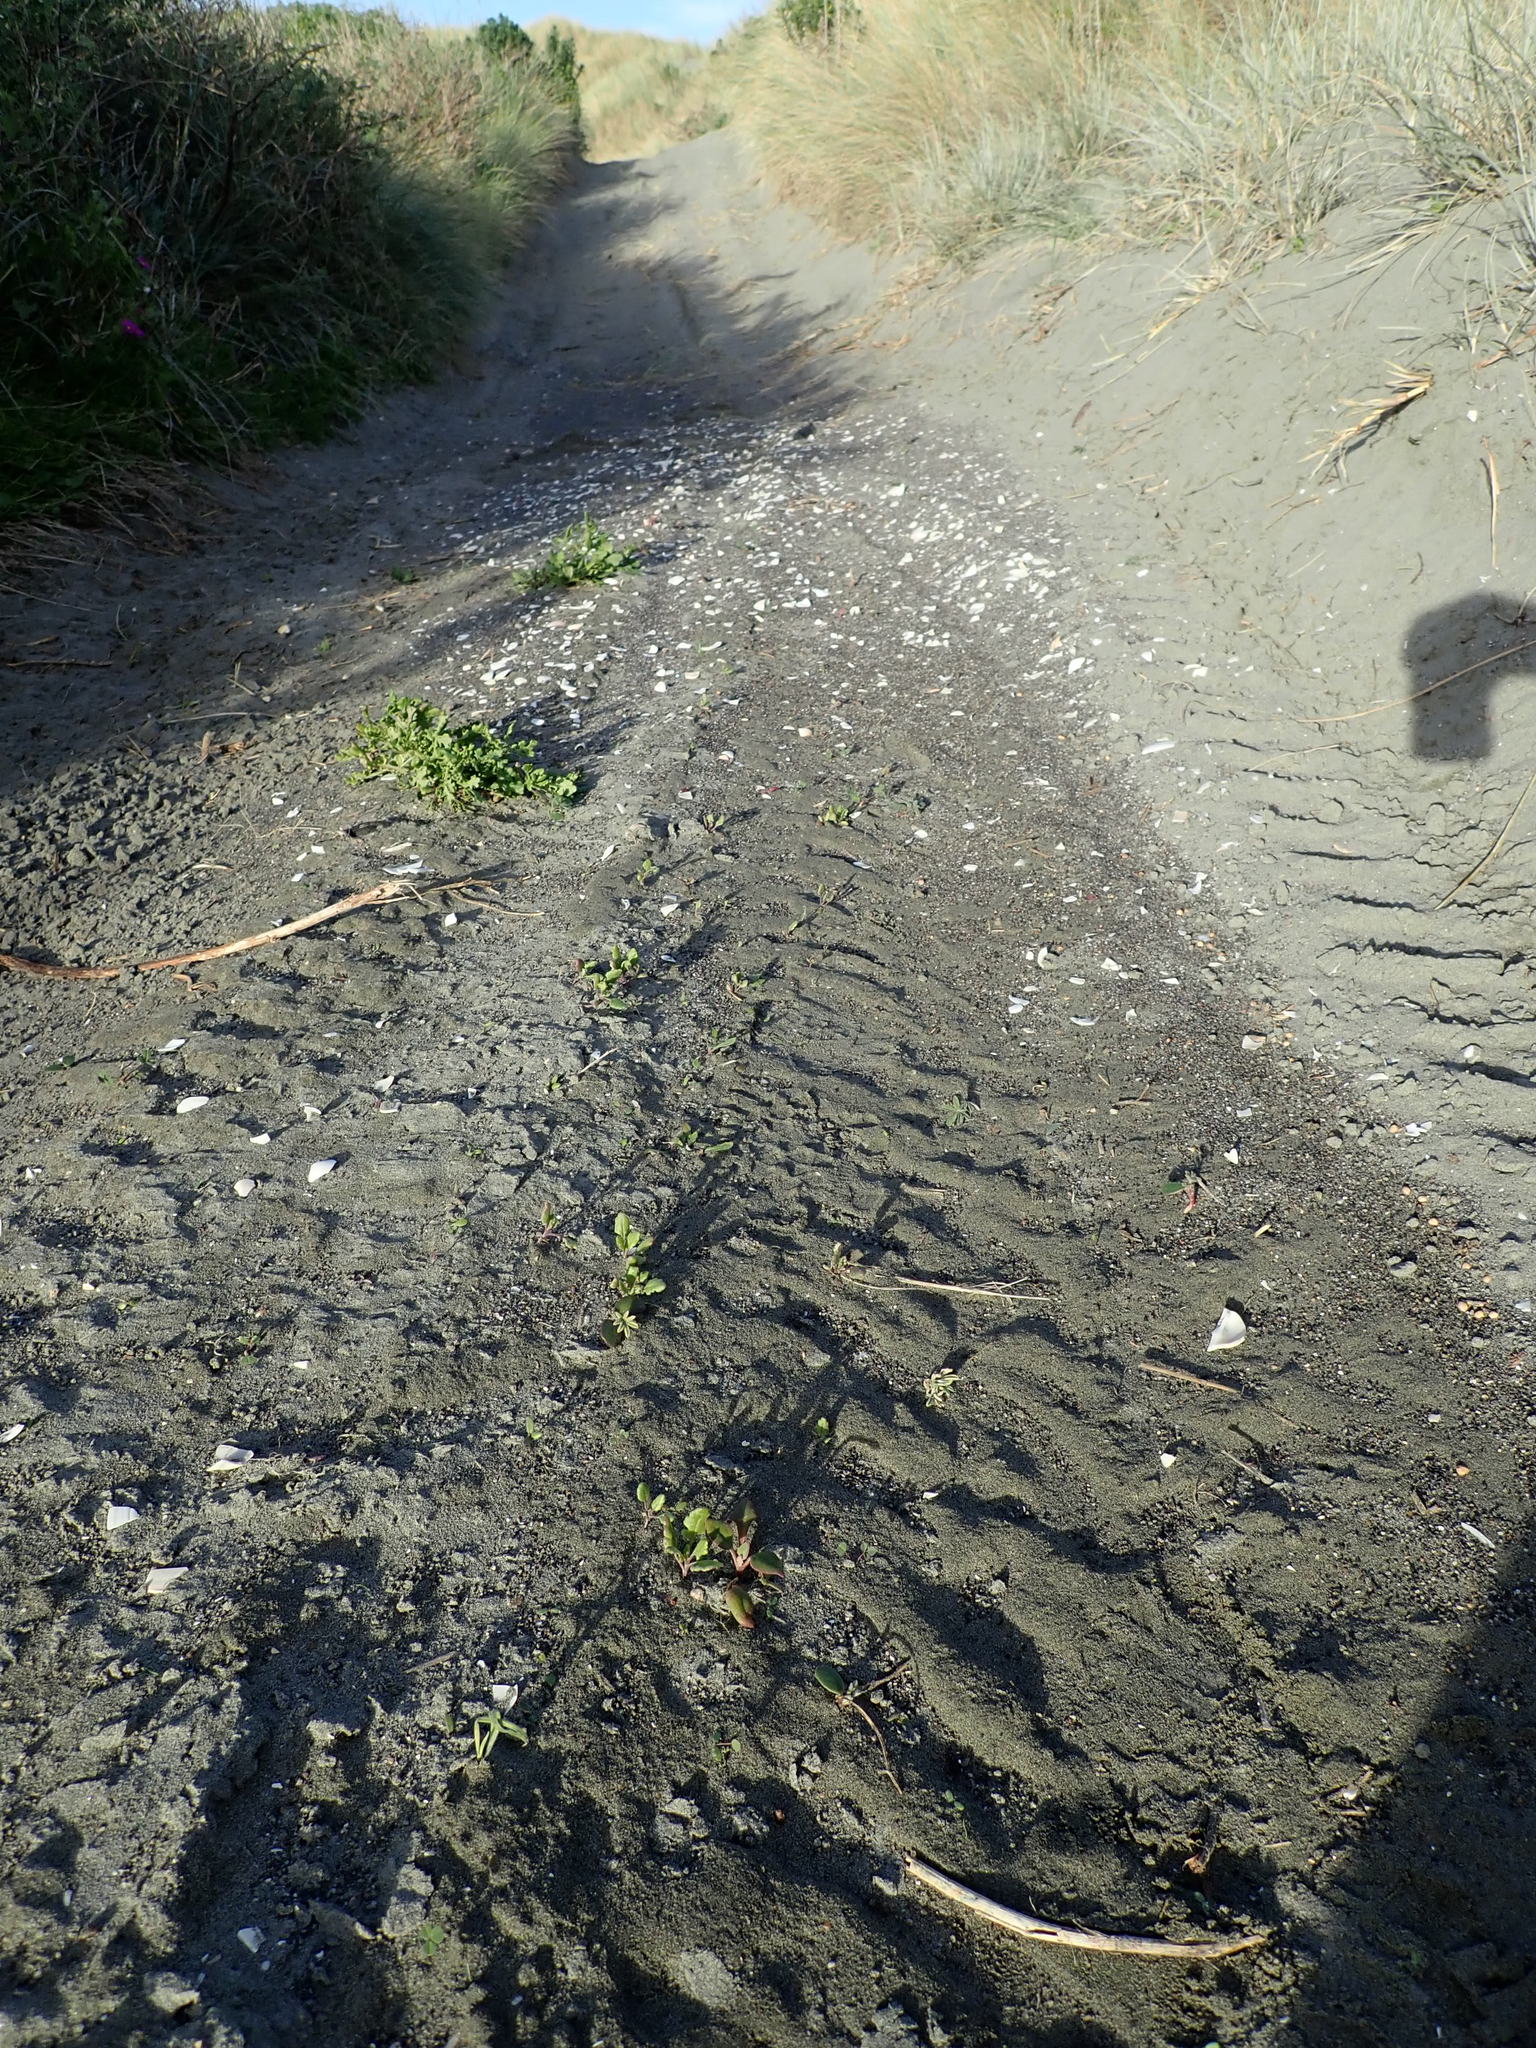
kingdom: Plantae
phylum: Tracheophyta
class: Magnoliopsida
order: Caryophyllales
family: Aizoaceae
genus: Tetragonia
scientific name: Tetragonia implexicoma
